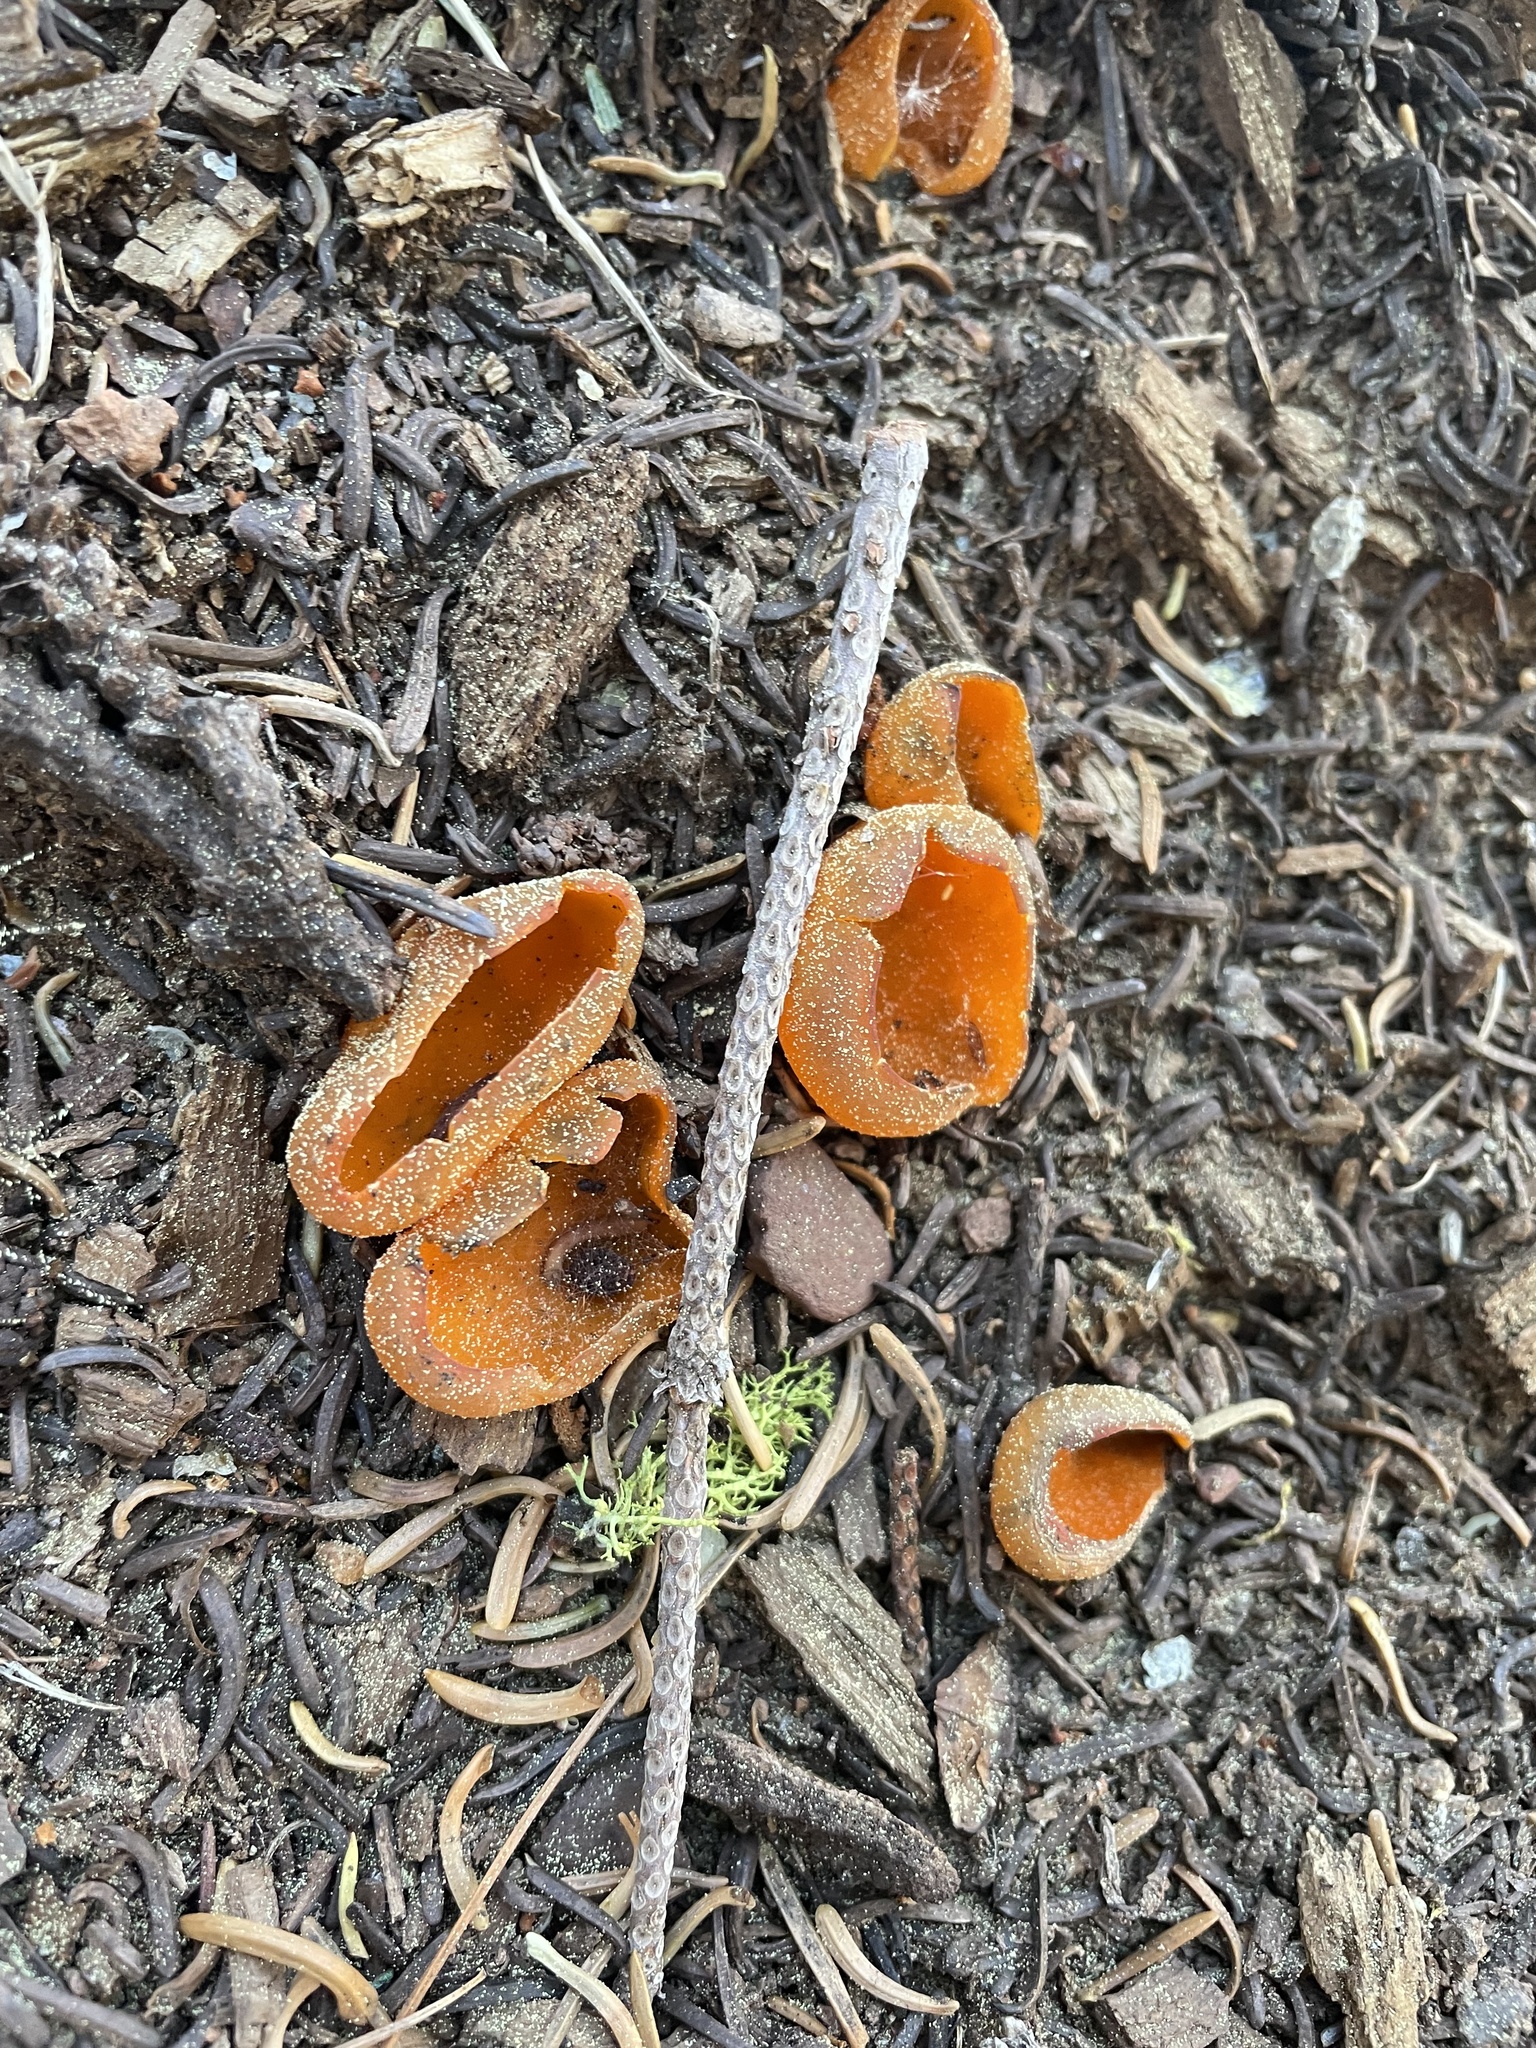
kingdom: Fungi
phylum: Ascomycota
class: Pezizomycetes
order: Pezizales
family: Caloscyphaceae
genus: Caloscypha
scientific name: Caloscypha fulgens
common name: Golden cup
